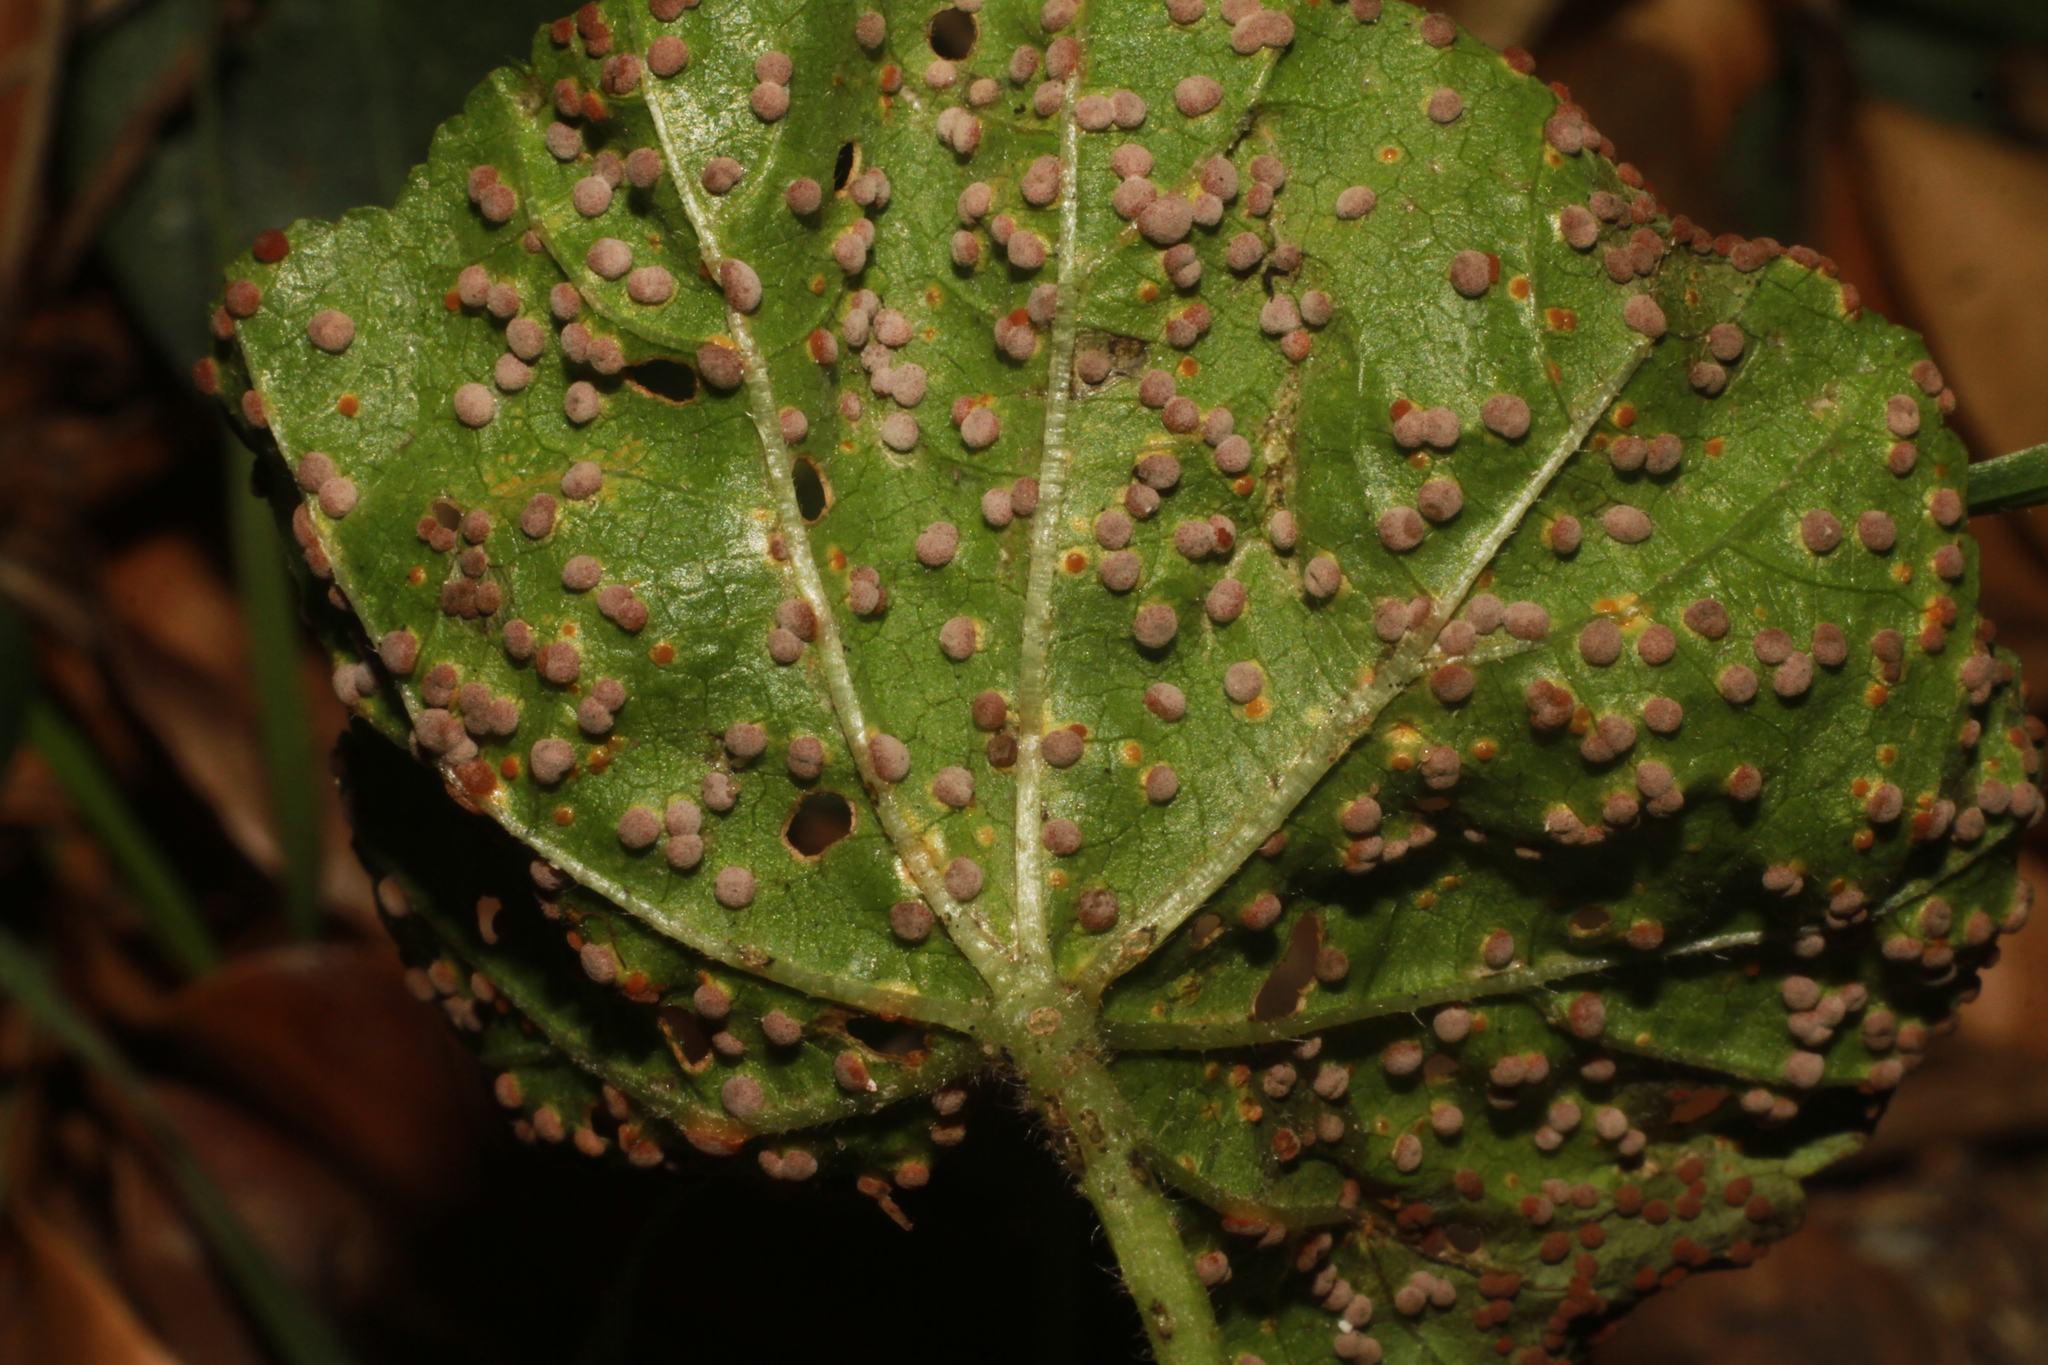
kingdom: Fungi
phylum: Basidiomycota
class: Pucciniomycetes
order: Pucciniales
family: Pucciniaceae
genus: Puccinia
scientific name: Puccinia malvacearum
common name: Hollyhock rust
